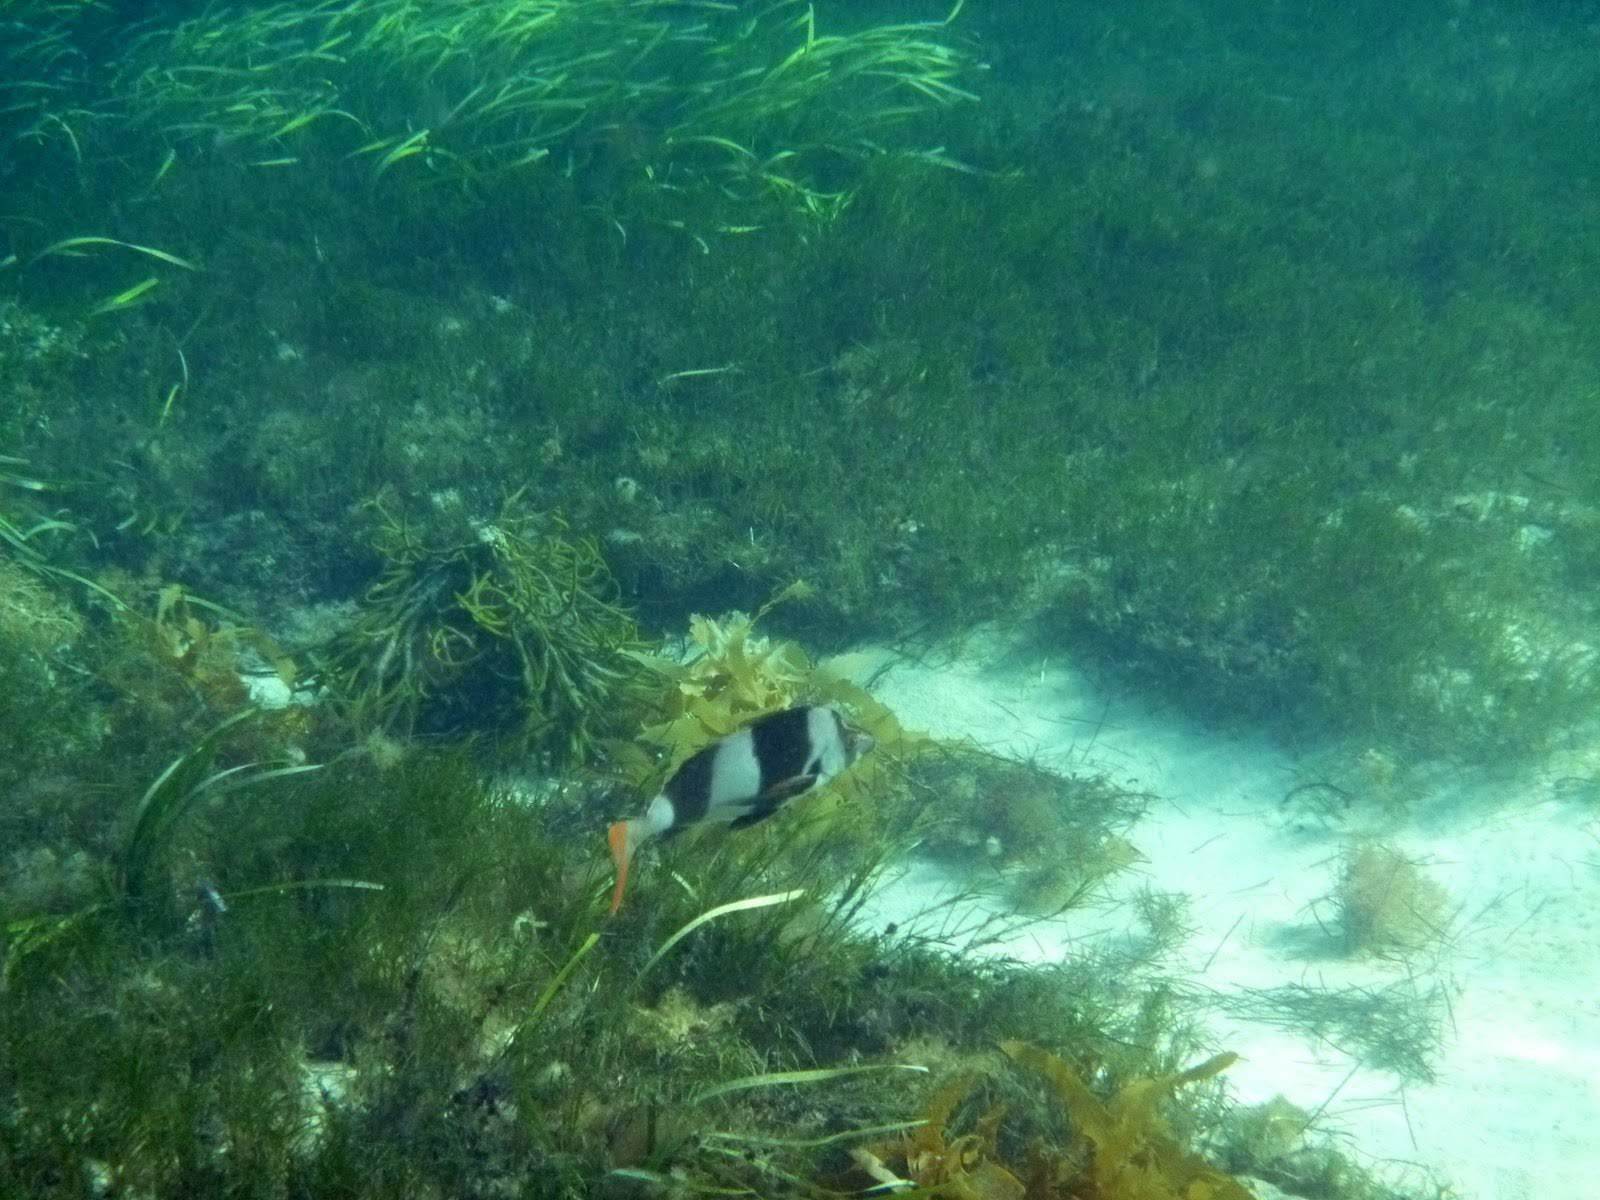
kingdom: Animalia
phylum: Chordata
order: Perciformes
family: Latridae
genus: Pseudogoniistius
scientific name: Pseudogoniistius nigripes
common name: Black-striped morwong
